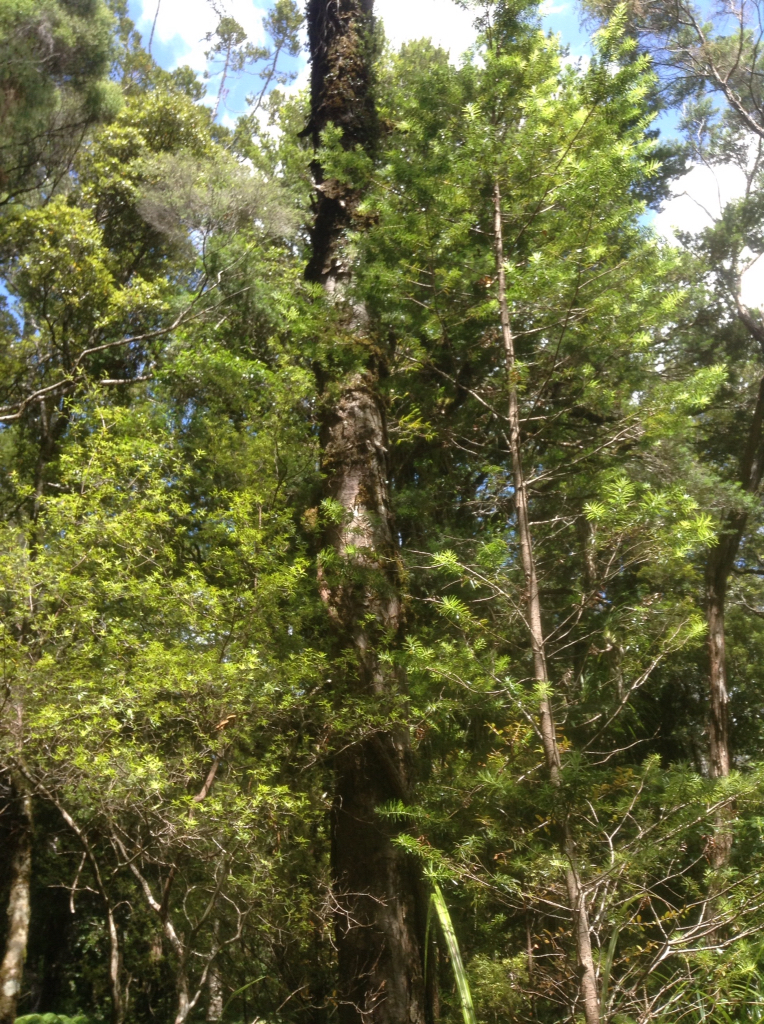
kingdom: Plantae
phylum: Tracheophyta
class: Pinopsida
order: Pinales
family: Podocarpaceae
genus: Halocarpus
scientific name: Halocarpus kirkii
